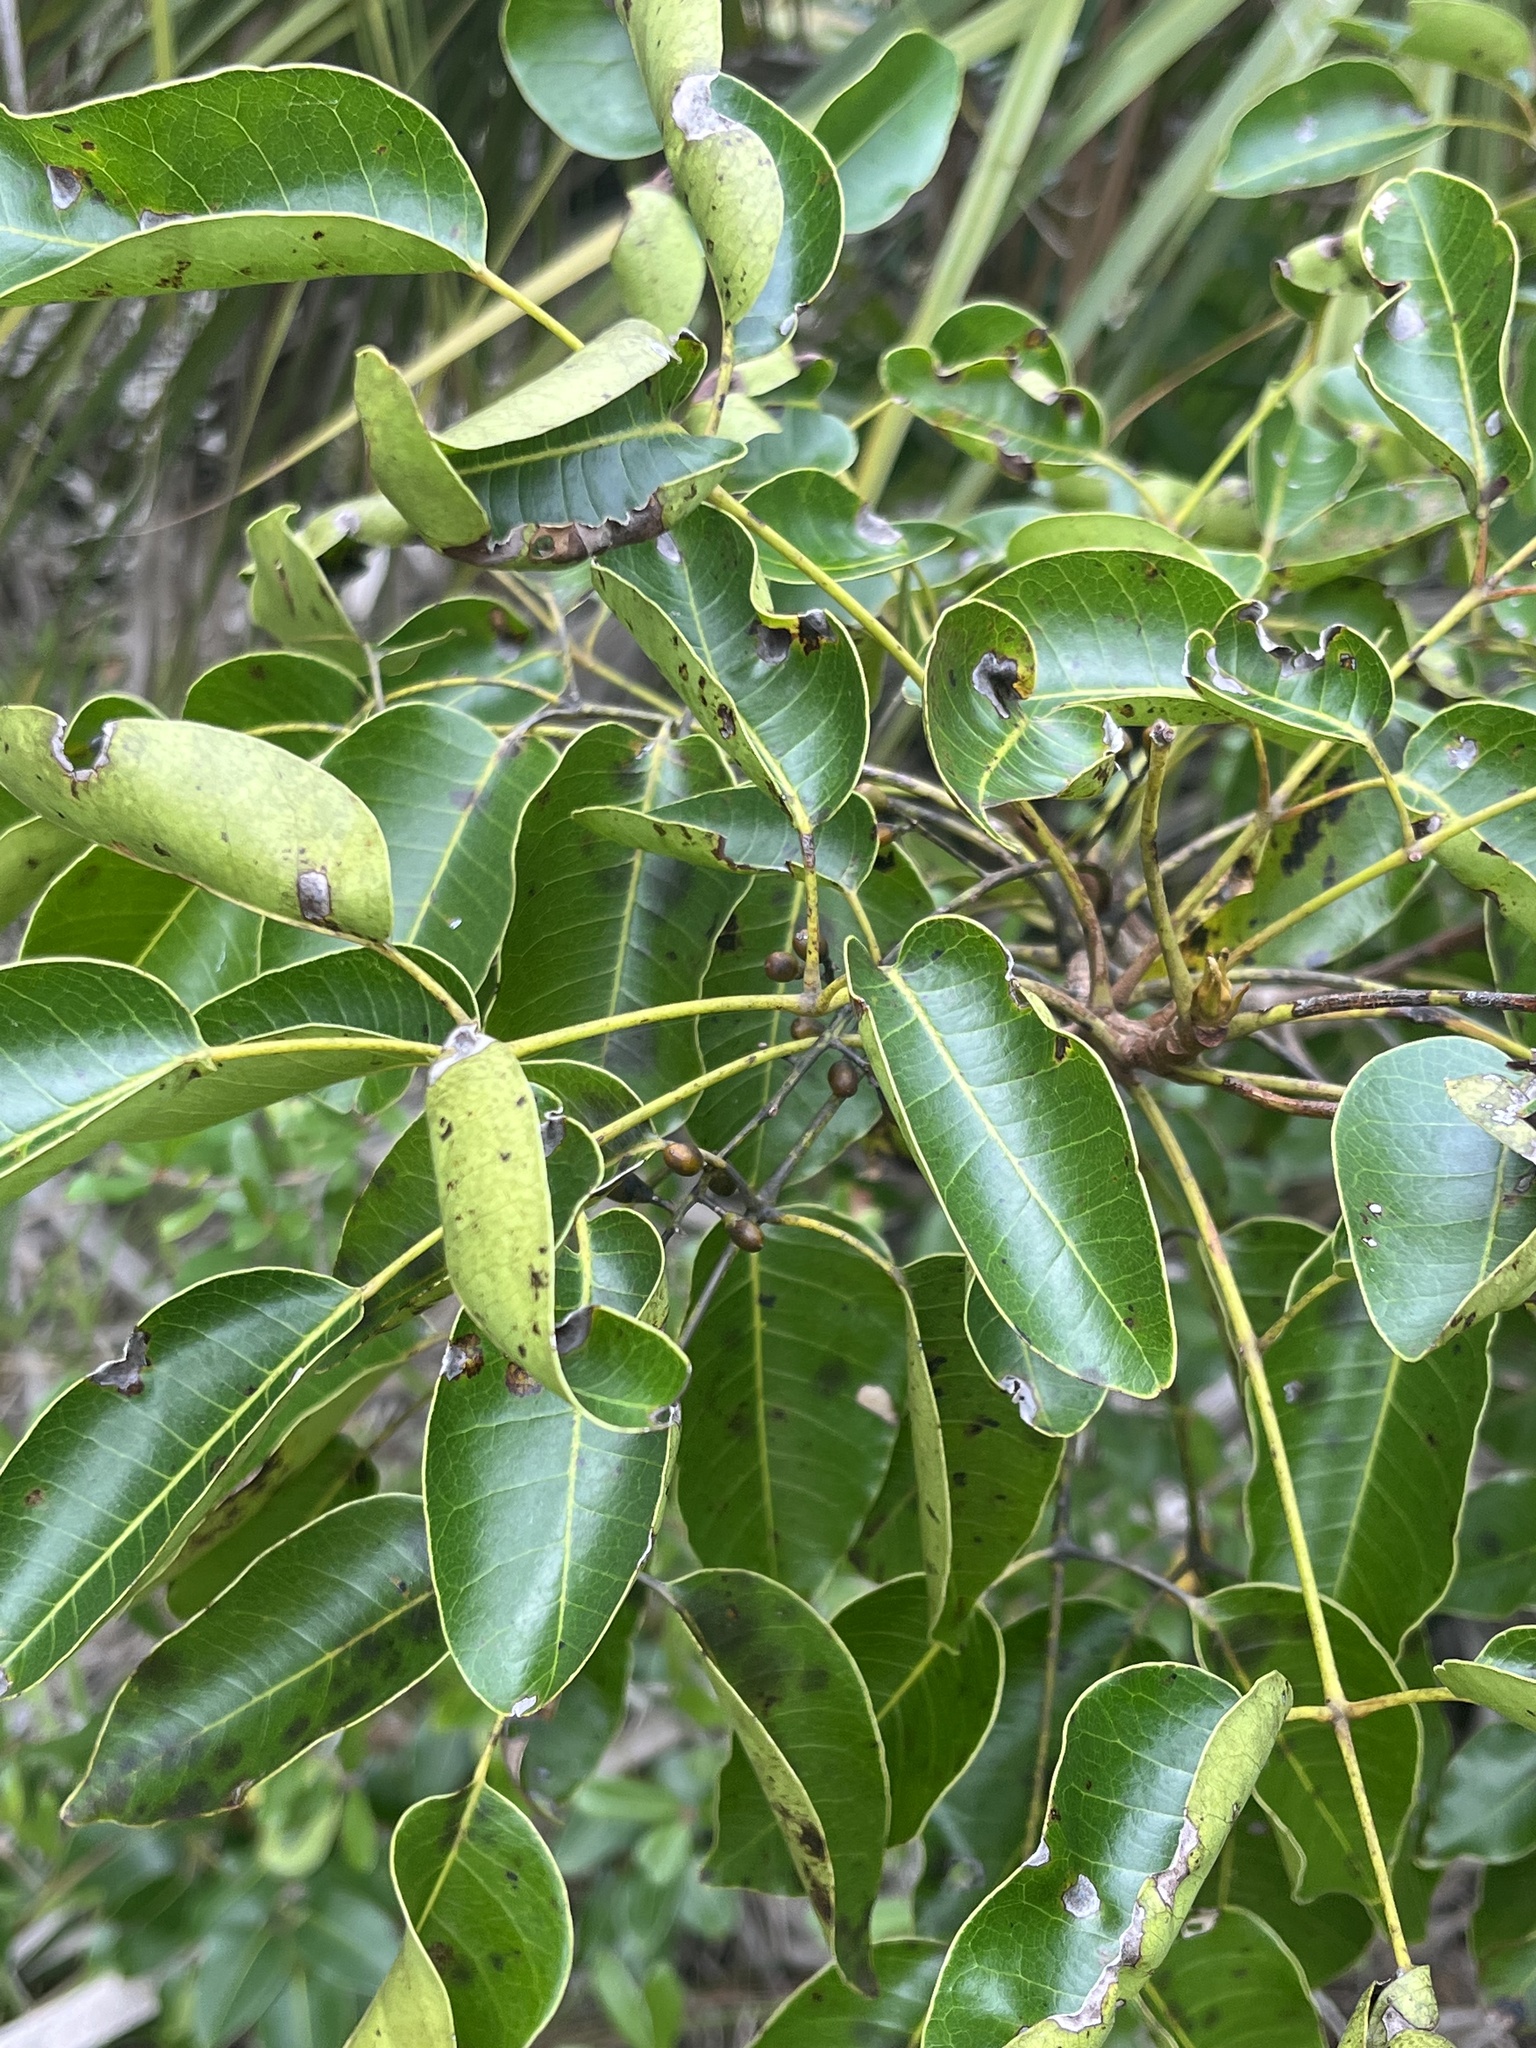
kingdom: Plantae
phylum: Tracheophyta
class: Magnoliopsida
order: Sapindales
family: Anacardiaceae
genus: Metopium
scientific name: Metopium toxiferum
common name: Florida poisontree
